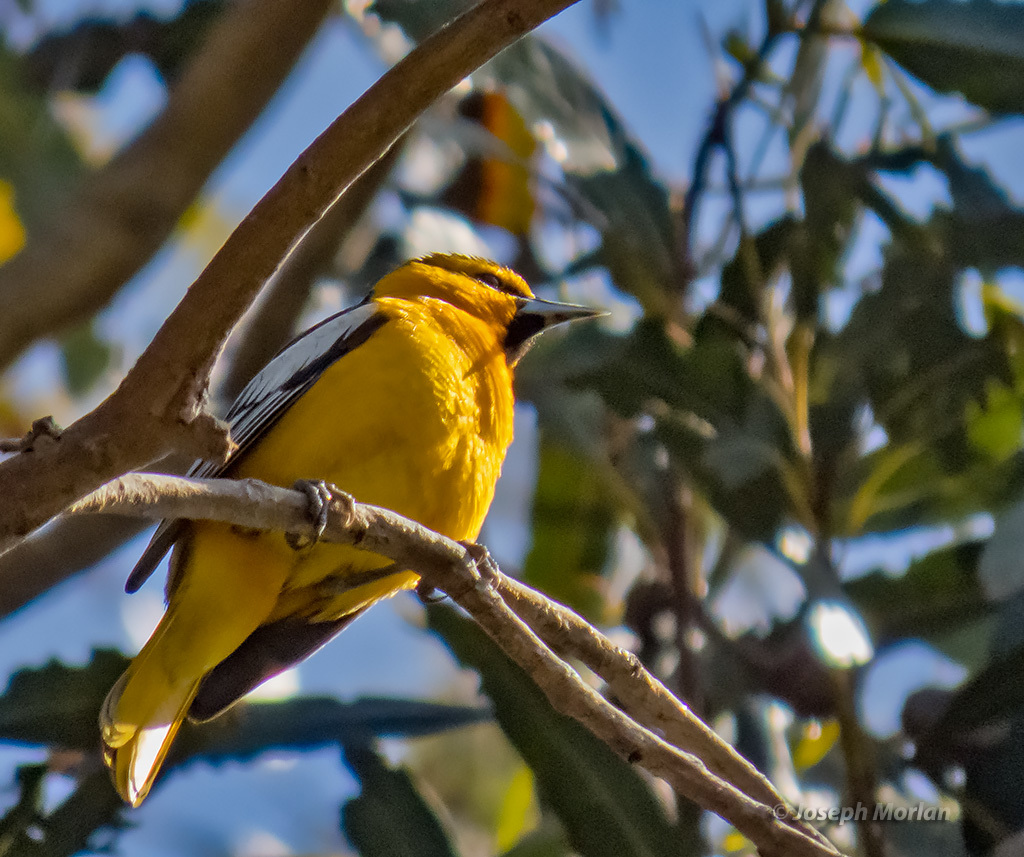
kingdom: Animalia
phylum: Chordata
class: Aves
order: Passeriformes
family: Icteridae
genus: Icterus
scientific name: Icterus bullockii
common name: Bullock's oriole
